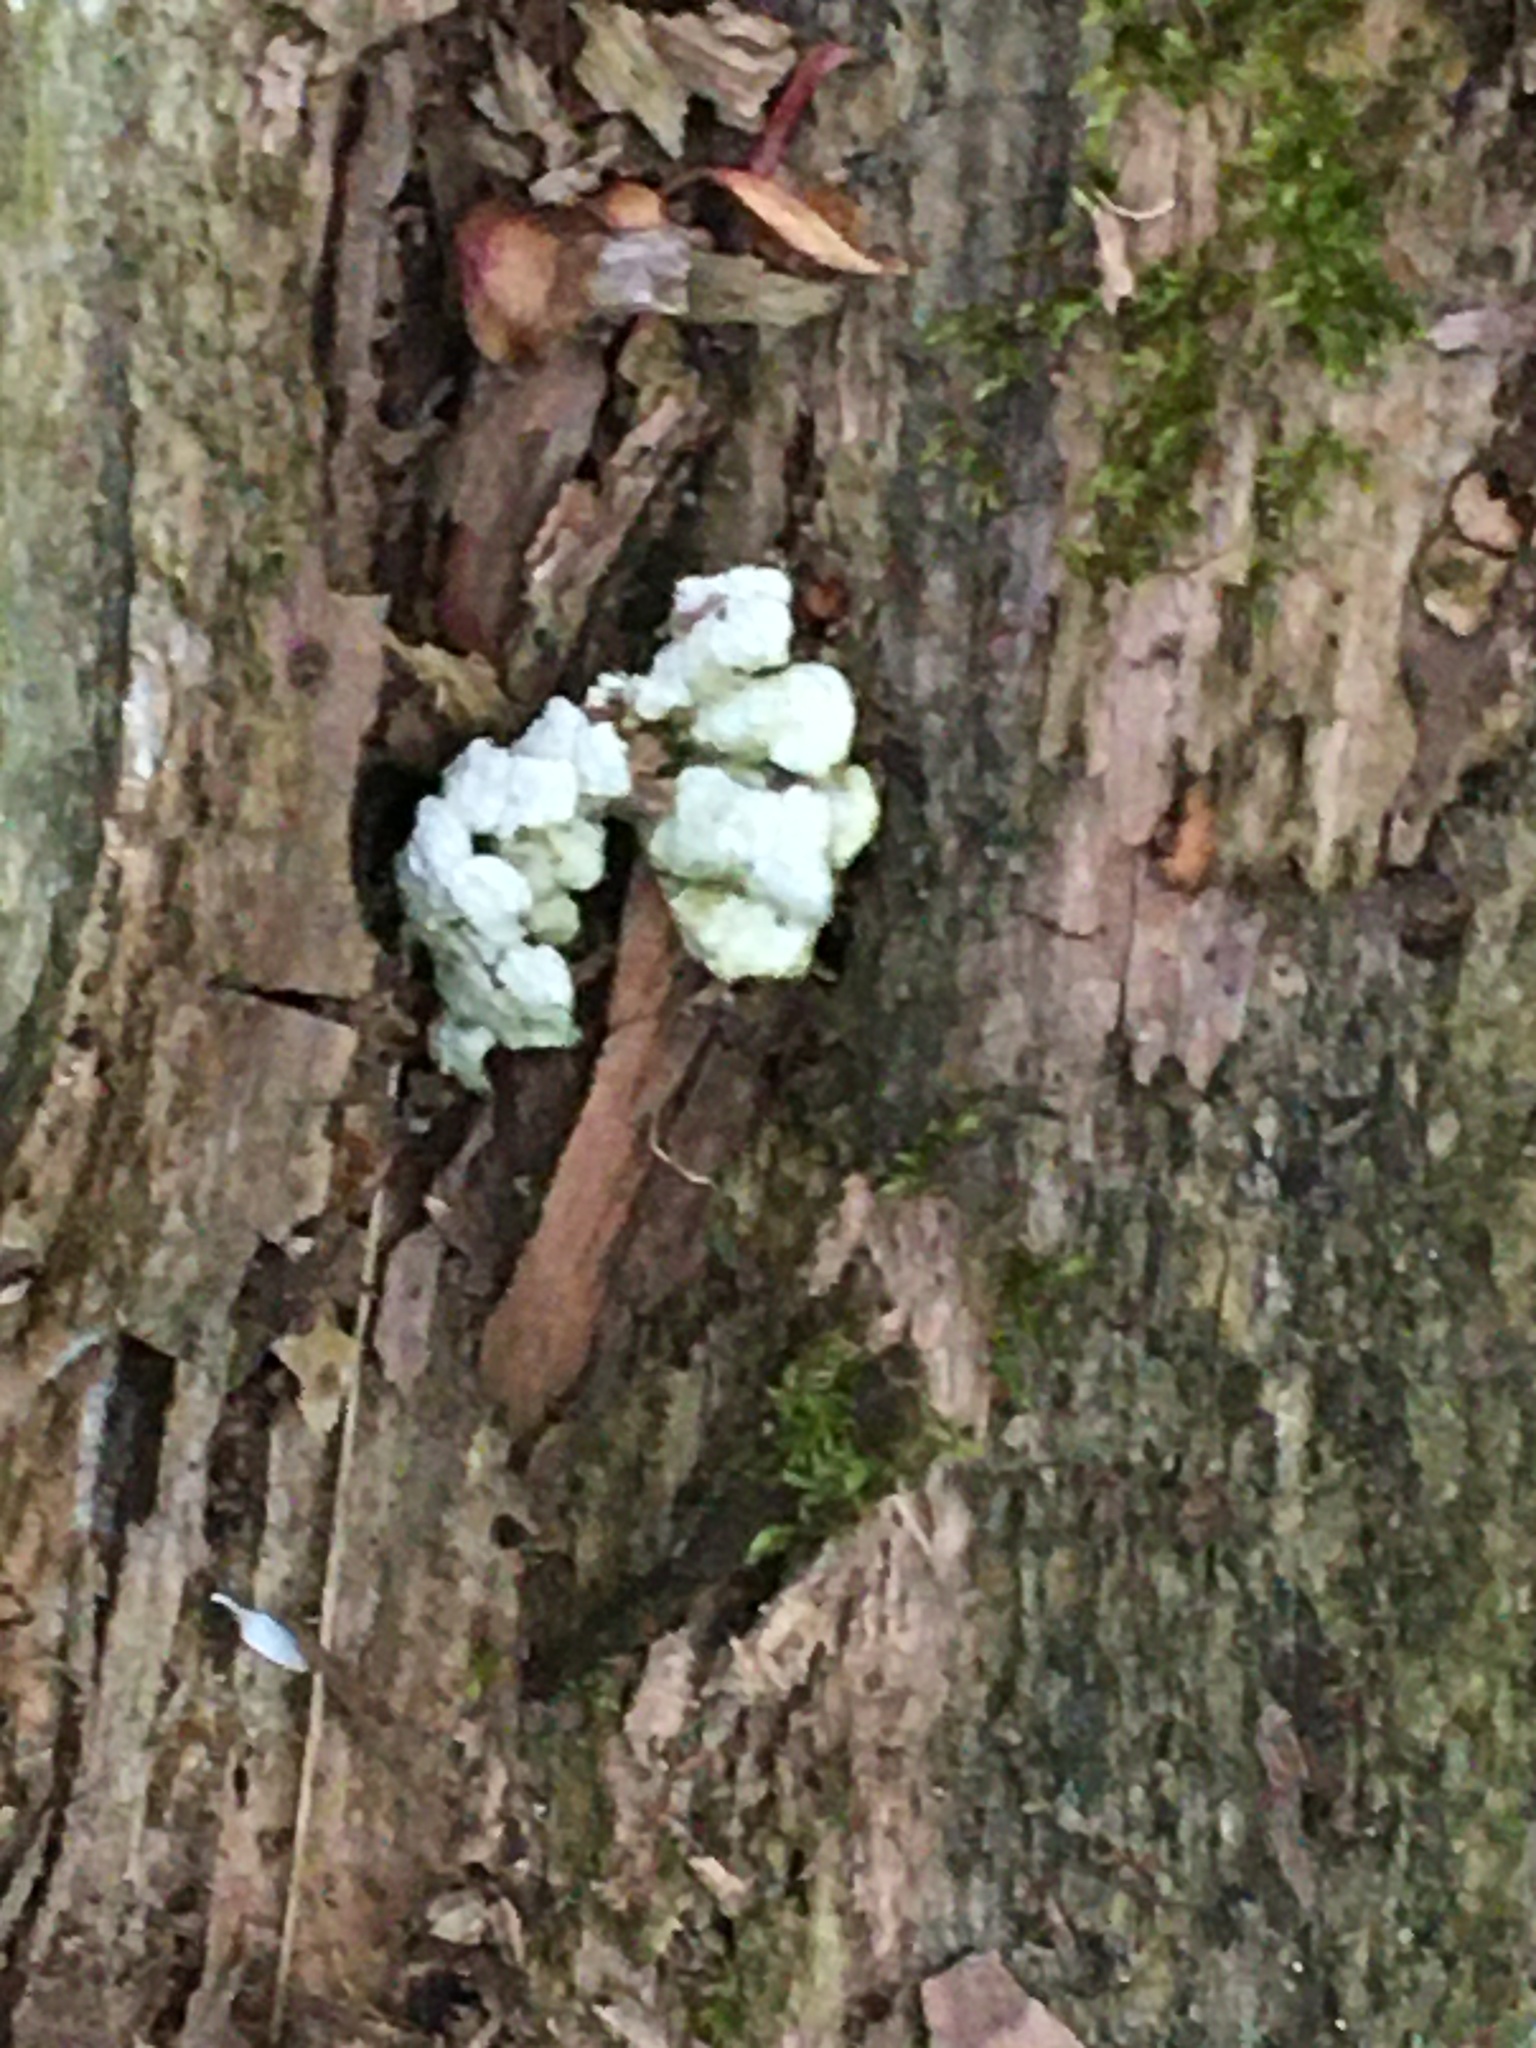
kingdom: Fungi
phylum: Basidiomycota
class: Agaricomycetes
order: Auriculariales
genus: Ductifera
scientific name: Ductifera pululahuana
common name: White jelly fungus
